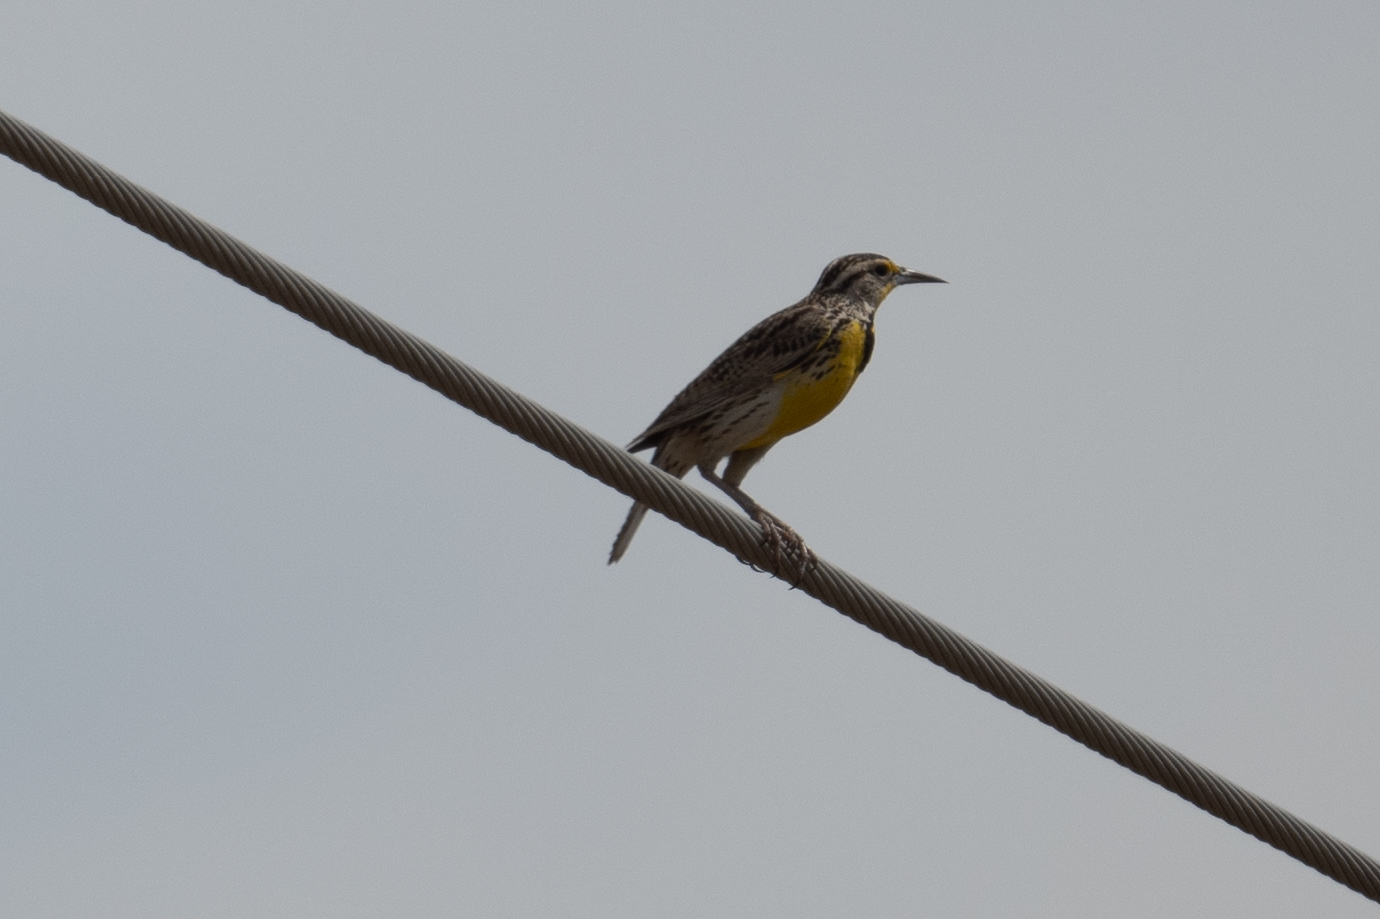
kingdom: Animalia
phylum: Chordata
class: Aves
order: Passeriformes
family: Icteridae
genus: Sturnella
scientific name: Sturnella neglecta
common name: Western meadowlark
